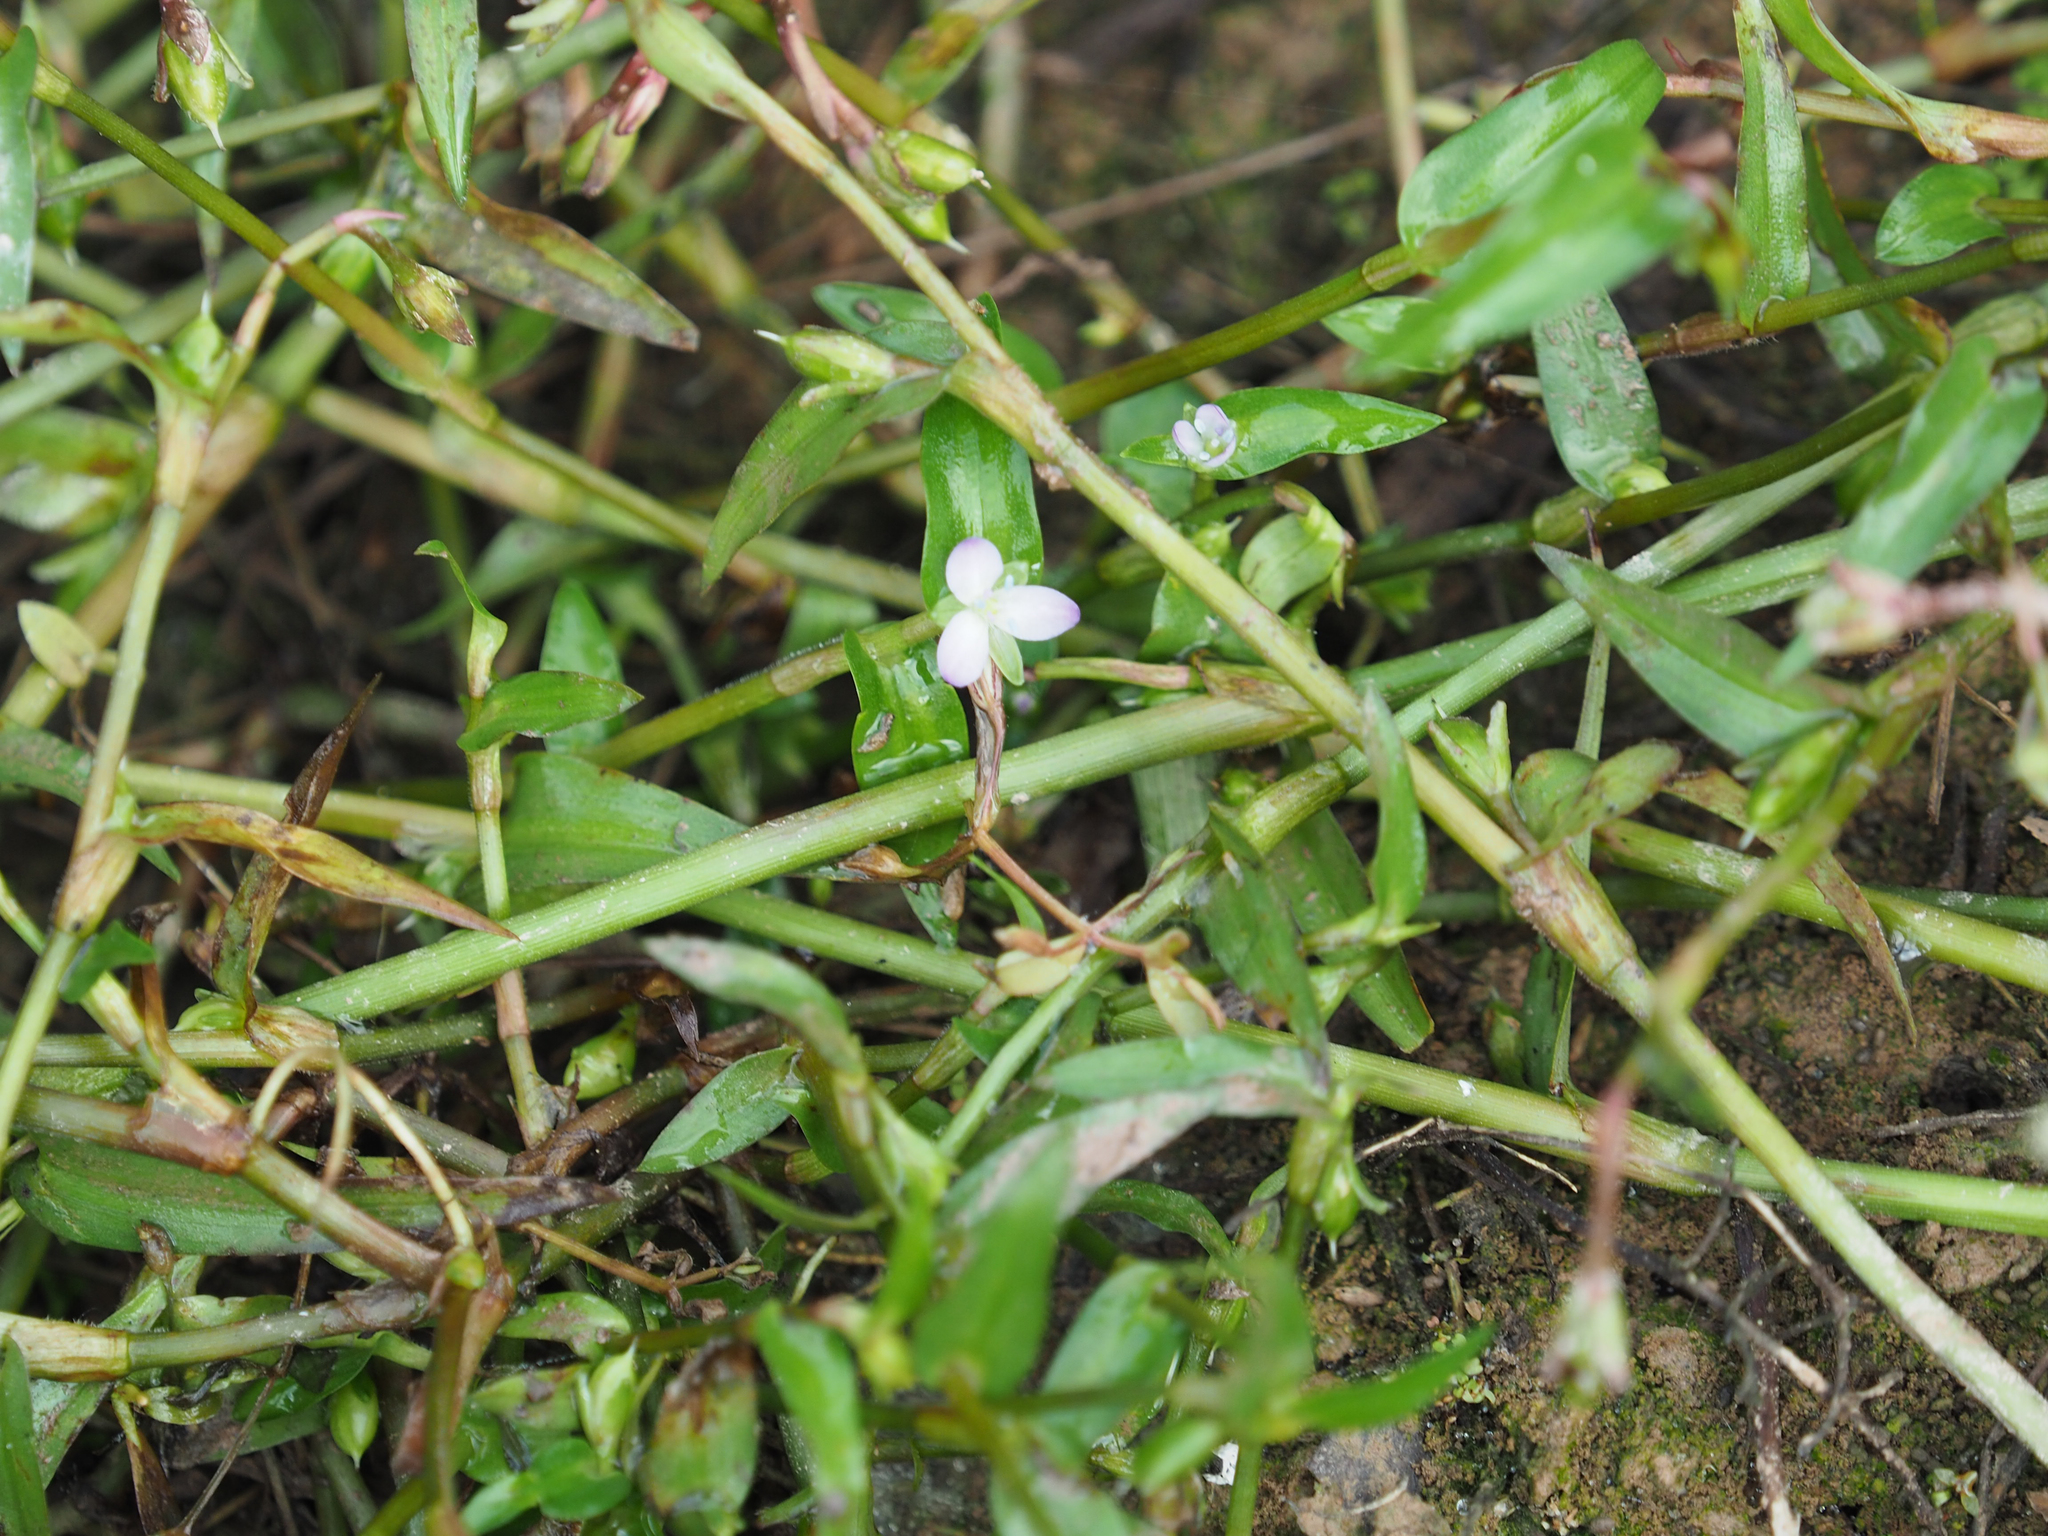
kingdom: Plantae
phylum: Tracheophyta
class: Liliopsida
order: Commelinales
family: Commelinaceae
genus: Murdannia
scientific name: Murdannia keisak
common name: Wartremoving herb
